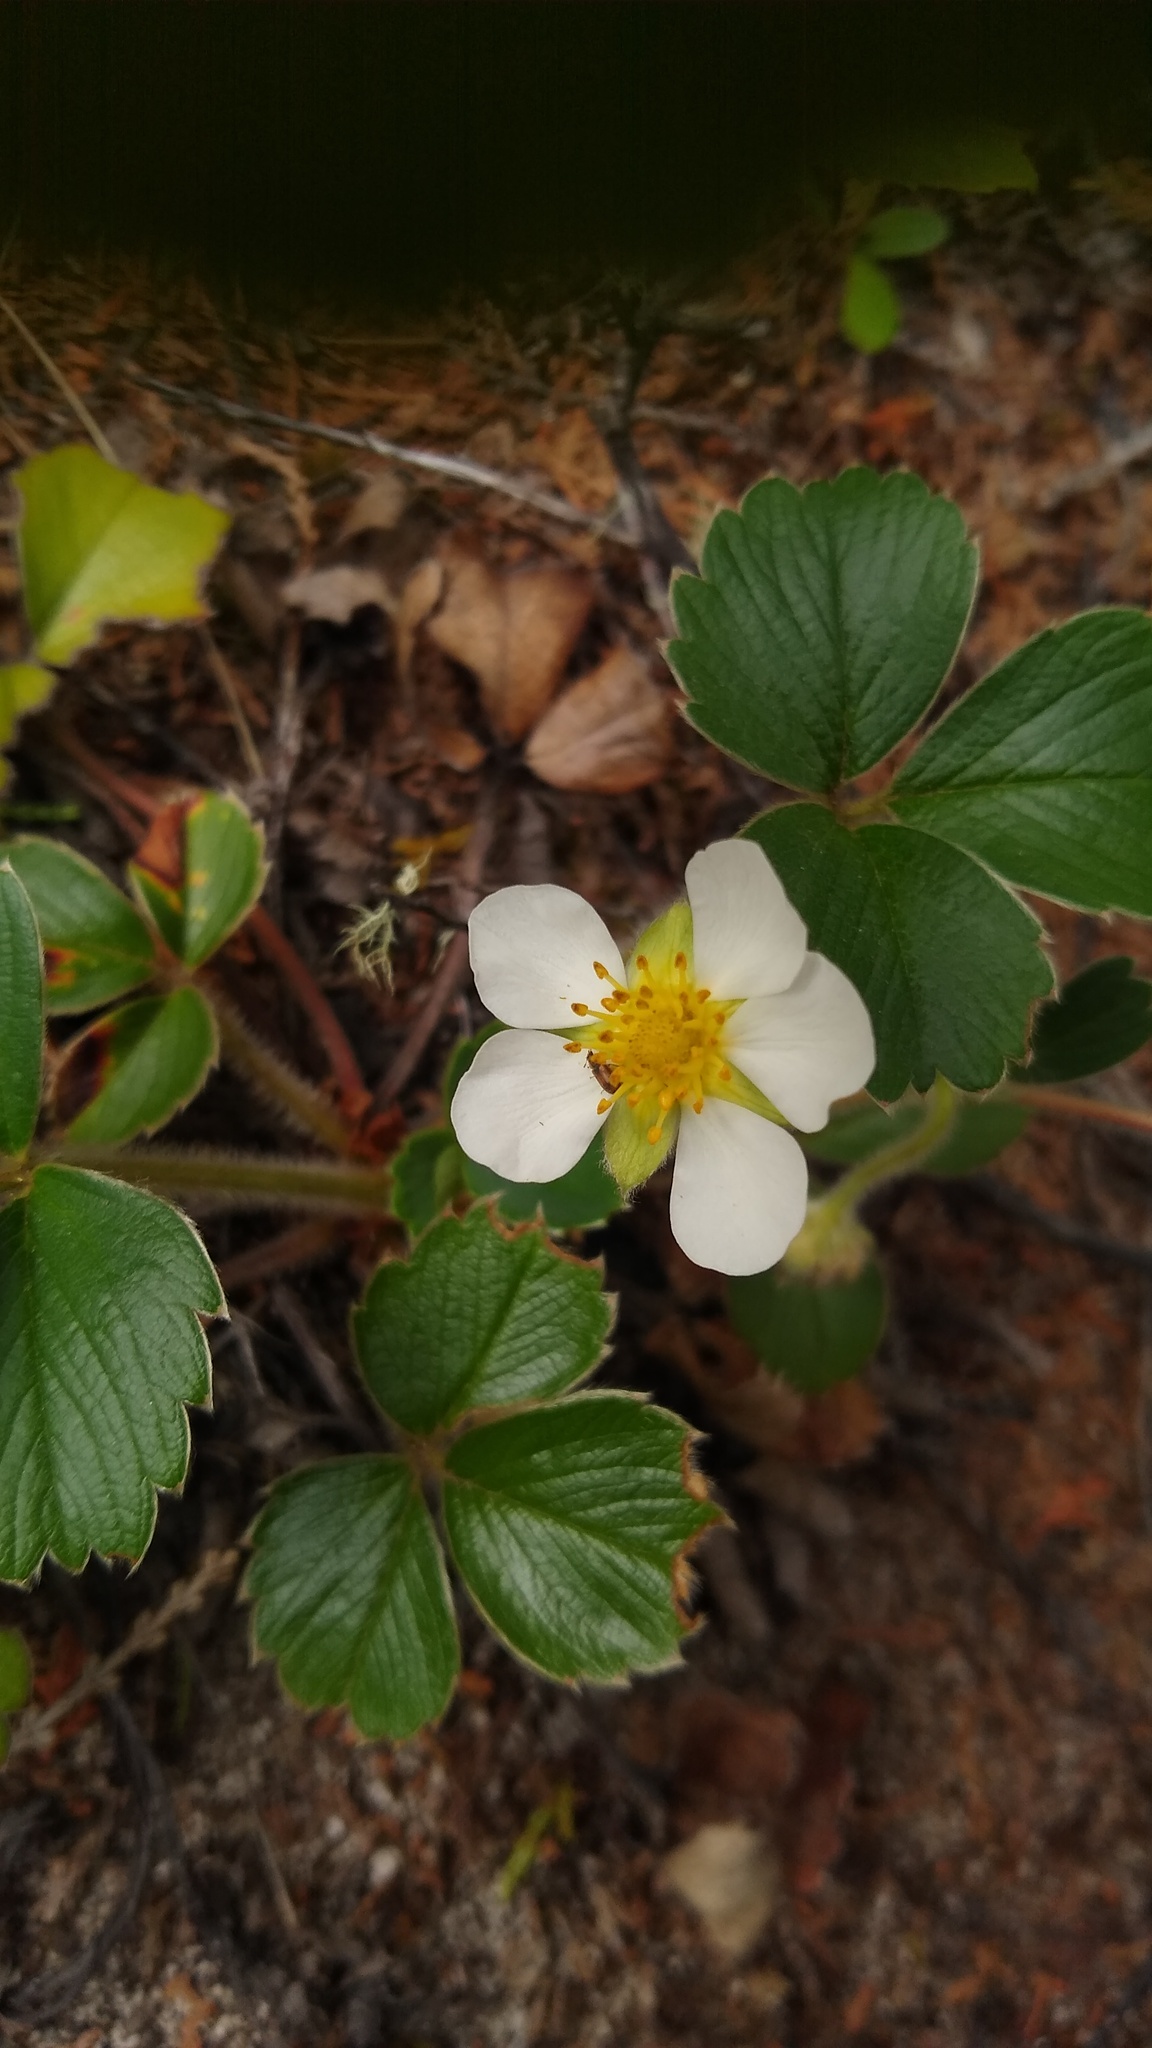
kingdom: Plantae
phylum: Tracheophyta
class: Magnoliopsida
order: Rosales
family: Rosaceae
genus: Fragaria
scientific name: Fragaria chiloensis
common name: Beach strawberry
